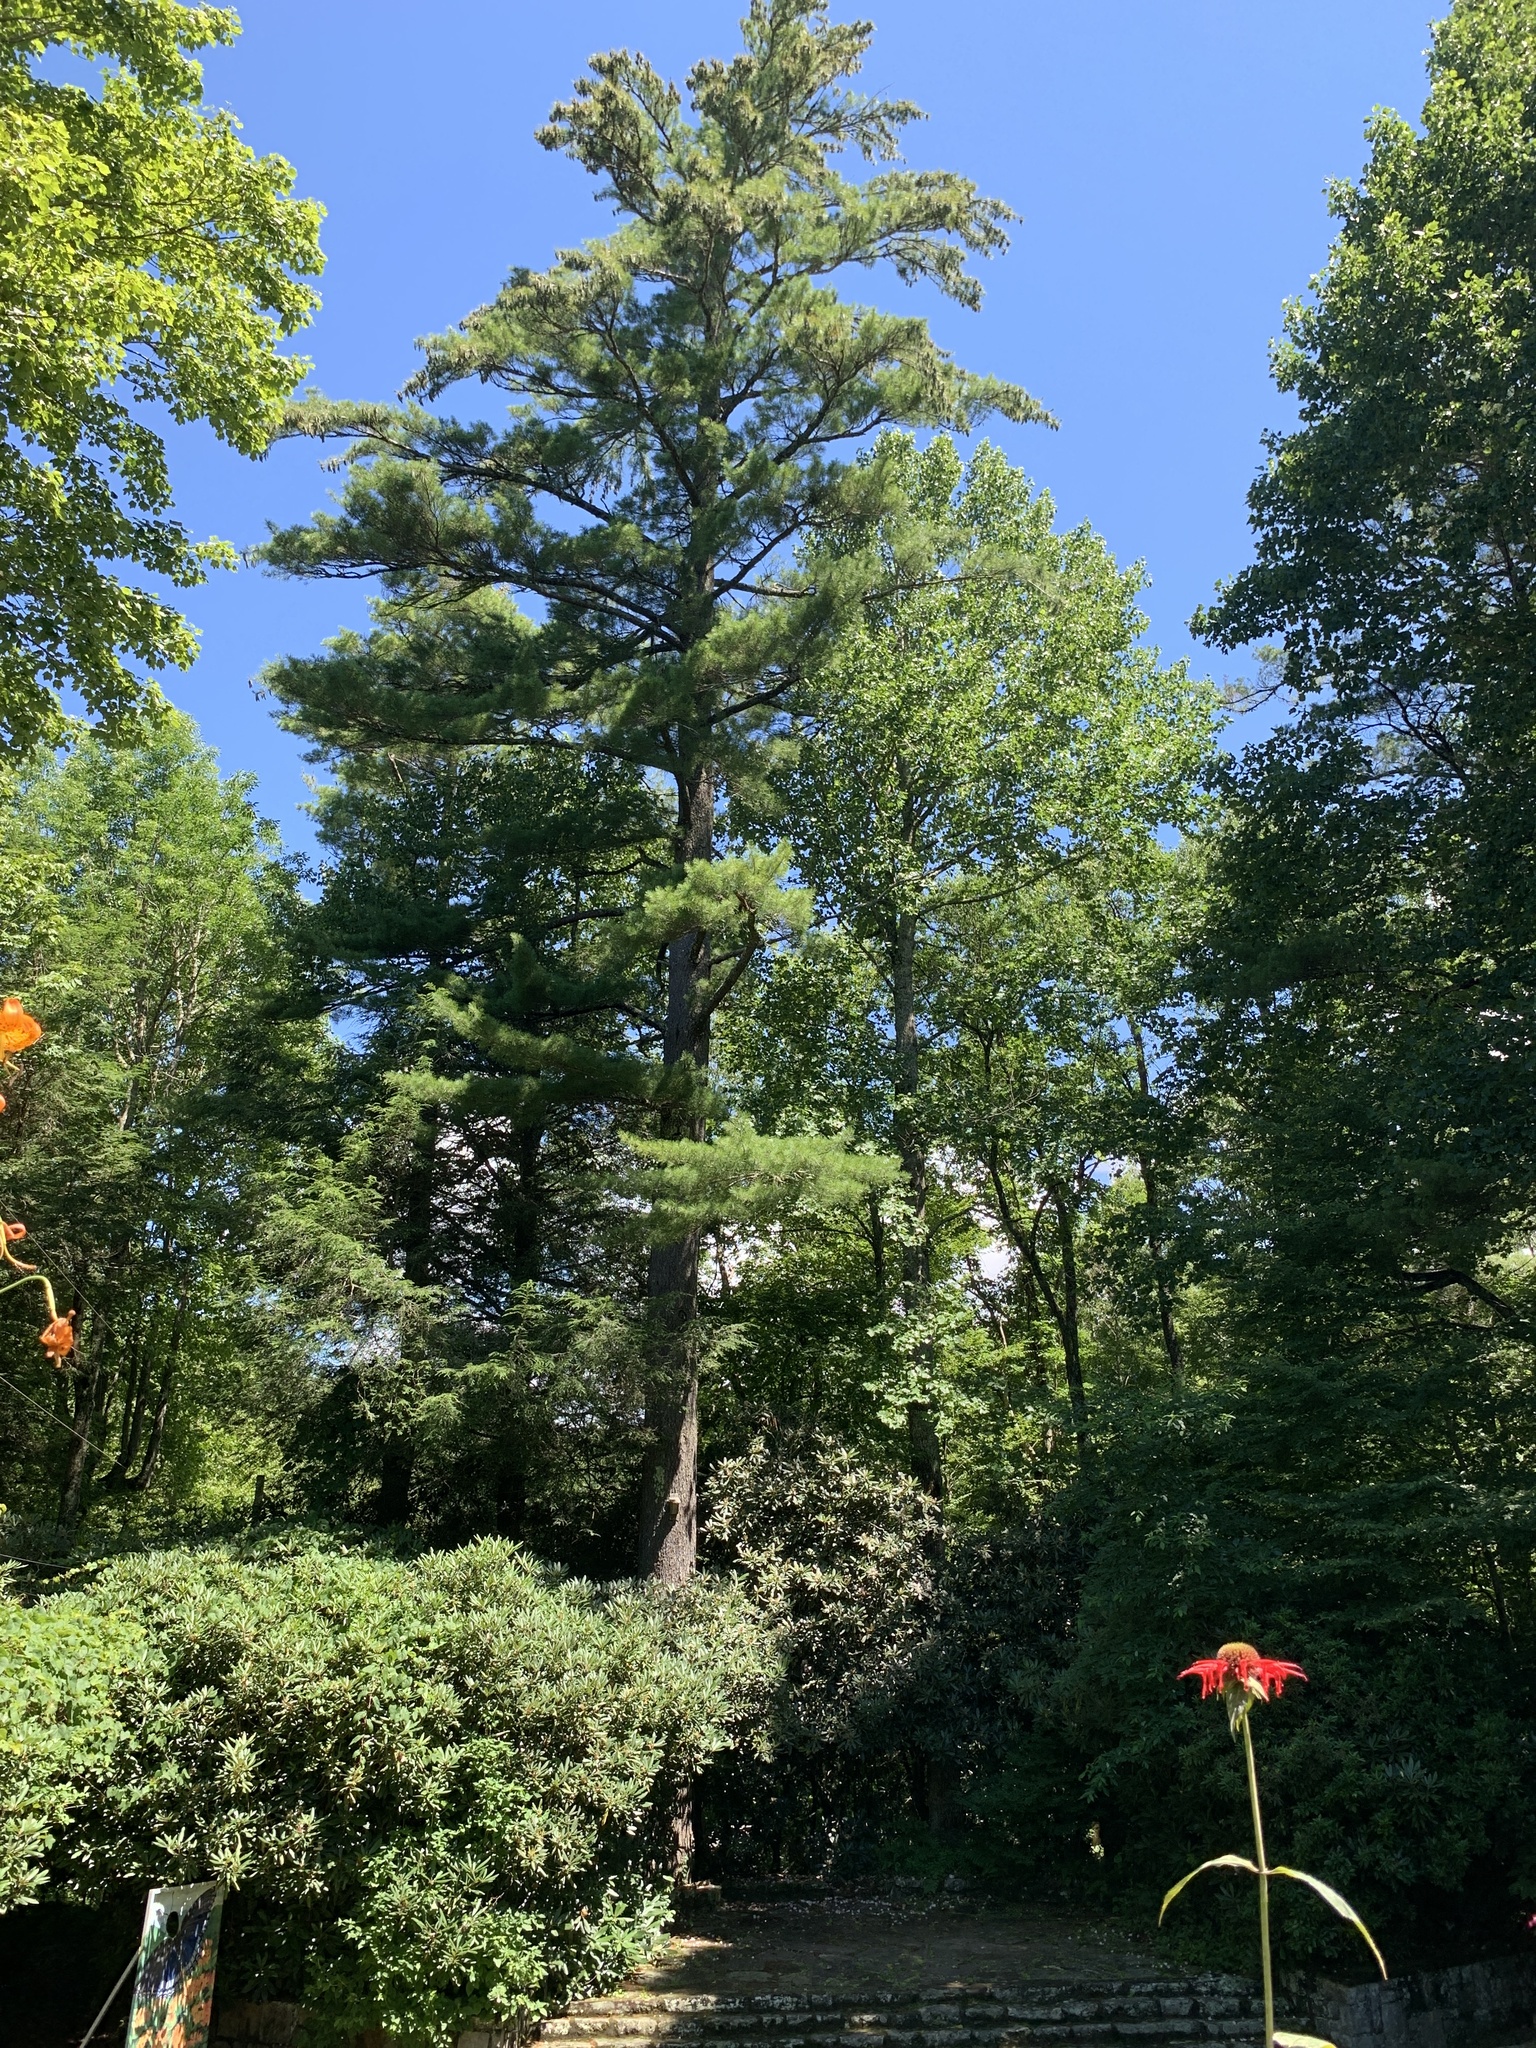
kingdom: Plantae
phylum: Tracheophyta
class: Pinopsida
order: Pinales
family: Pinaceae
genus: Pinus
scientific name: Pinus strobus
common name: Weymouth pine
